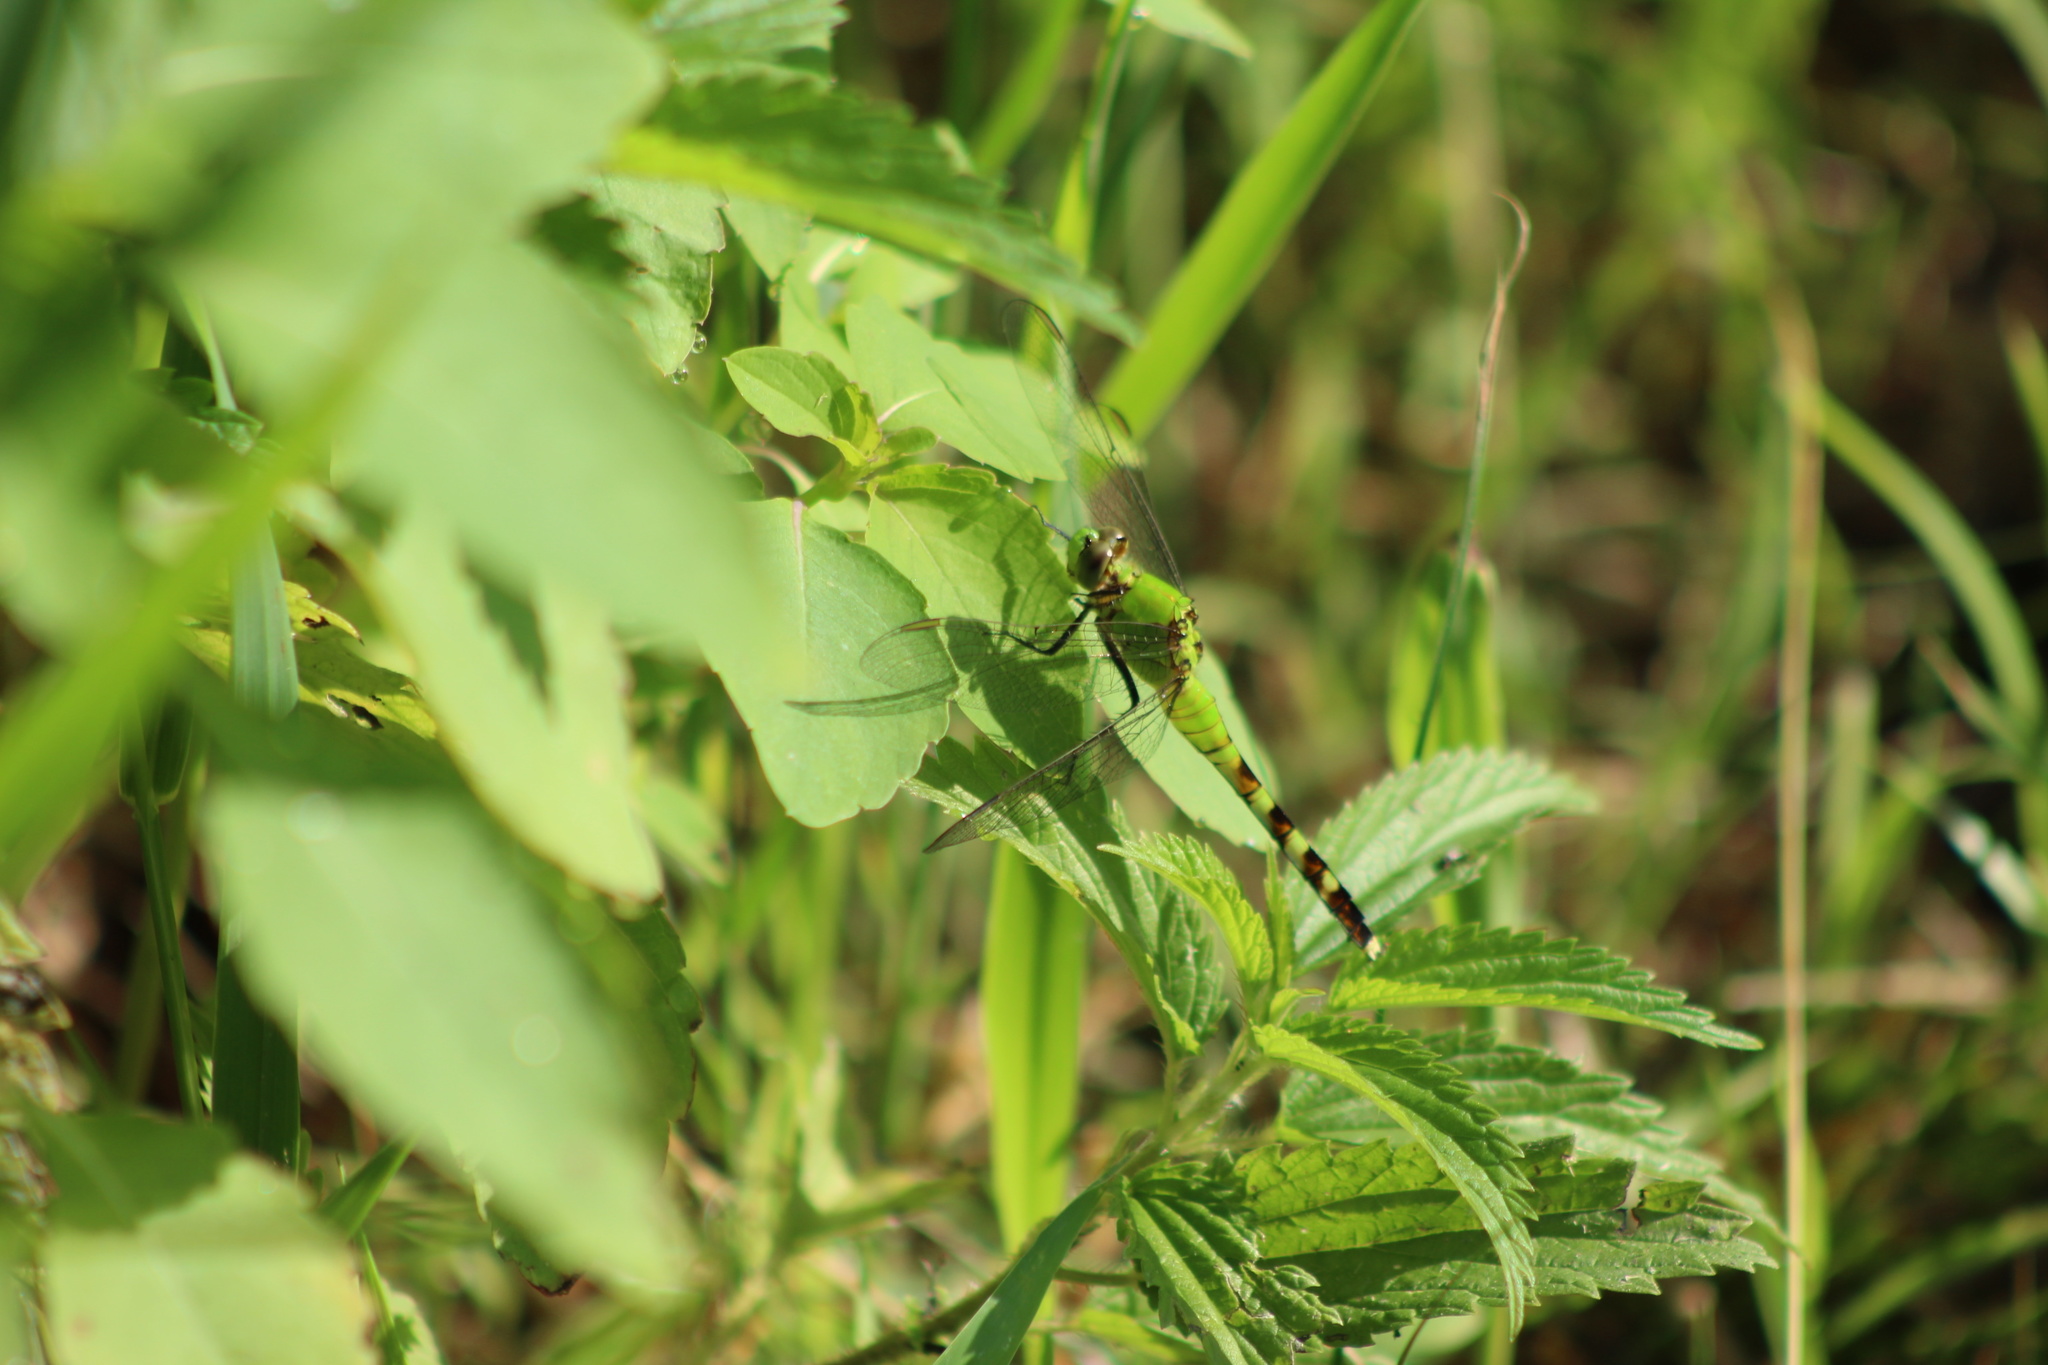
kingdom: Animalia
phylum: Arthropoda
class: Insecta
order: Odonata
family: Libellulidae
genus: Erythemis
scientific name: Erythemis simplicicollis
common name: Eastern pondhawk
